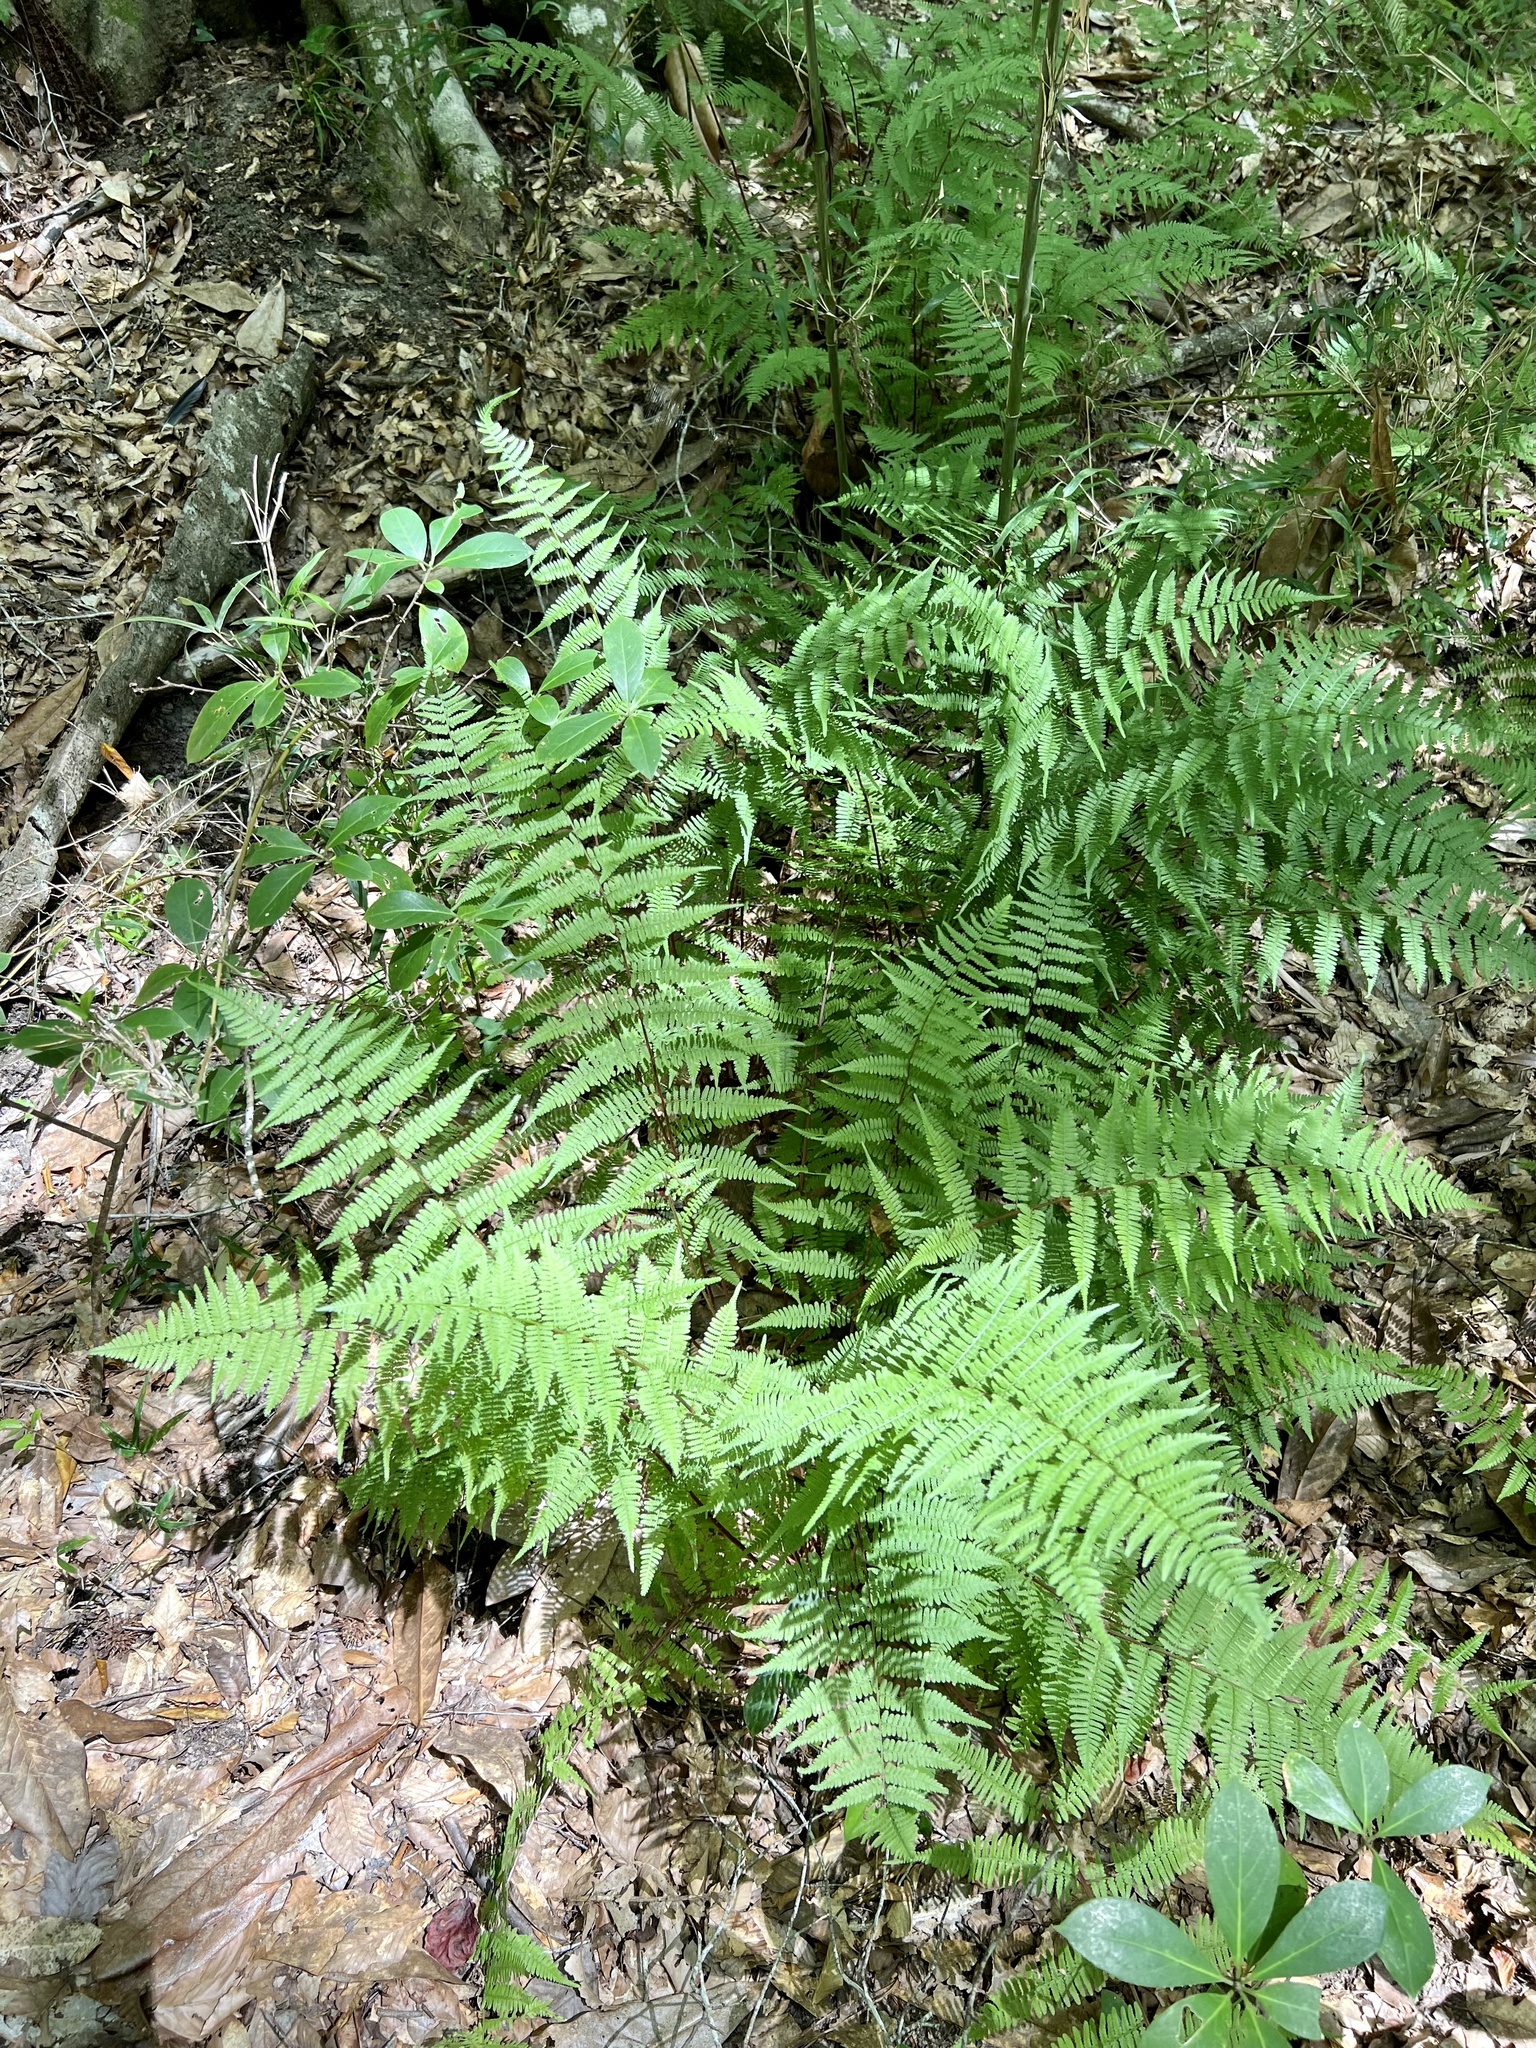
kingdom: Plantae
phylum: Tracheophyta
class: Polypodiopsida
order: Polypodiales
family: Athyriaceae
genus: Athyrium
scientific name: Athyrium asplenioides
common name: Southern lady fern
